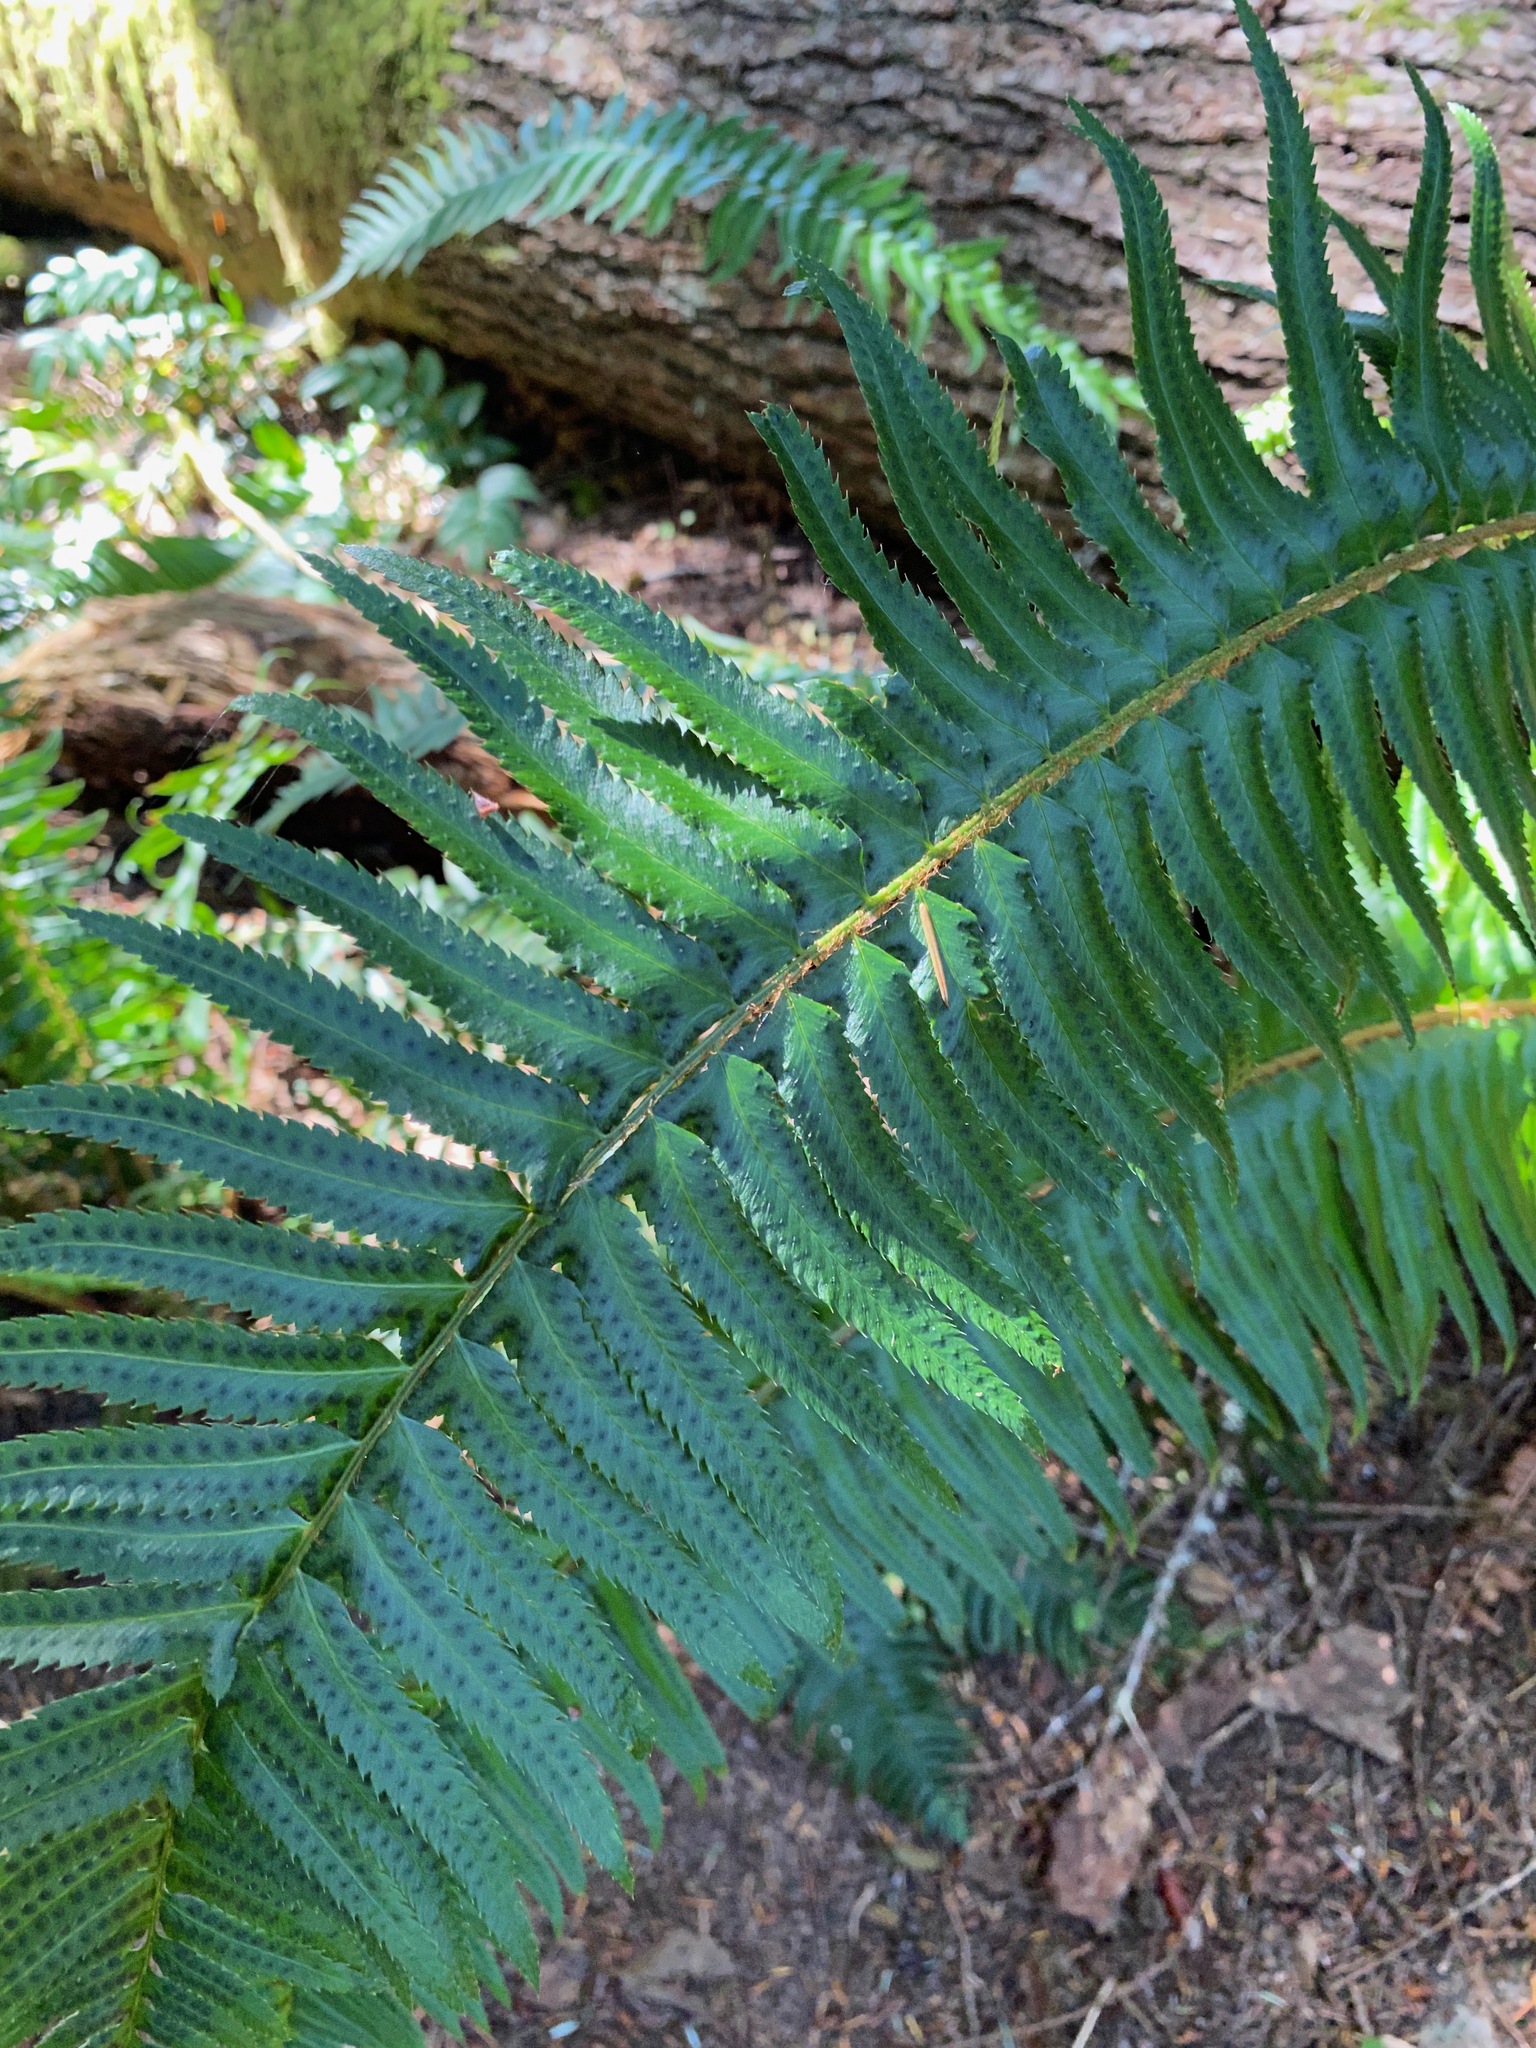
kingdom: Plantae
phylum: Tracheophyta
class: Polypodiopsida
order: Polypodiales
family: Dryopteridaceae
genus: Polystichum
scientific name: Polystichum munitum
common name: Western sword-fern
